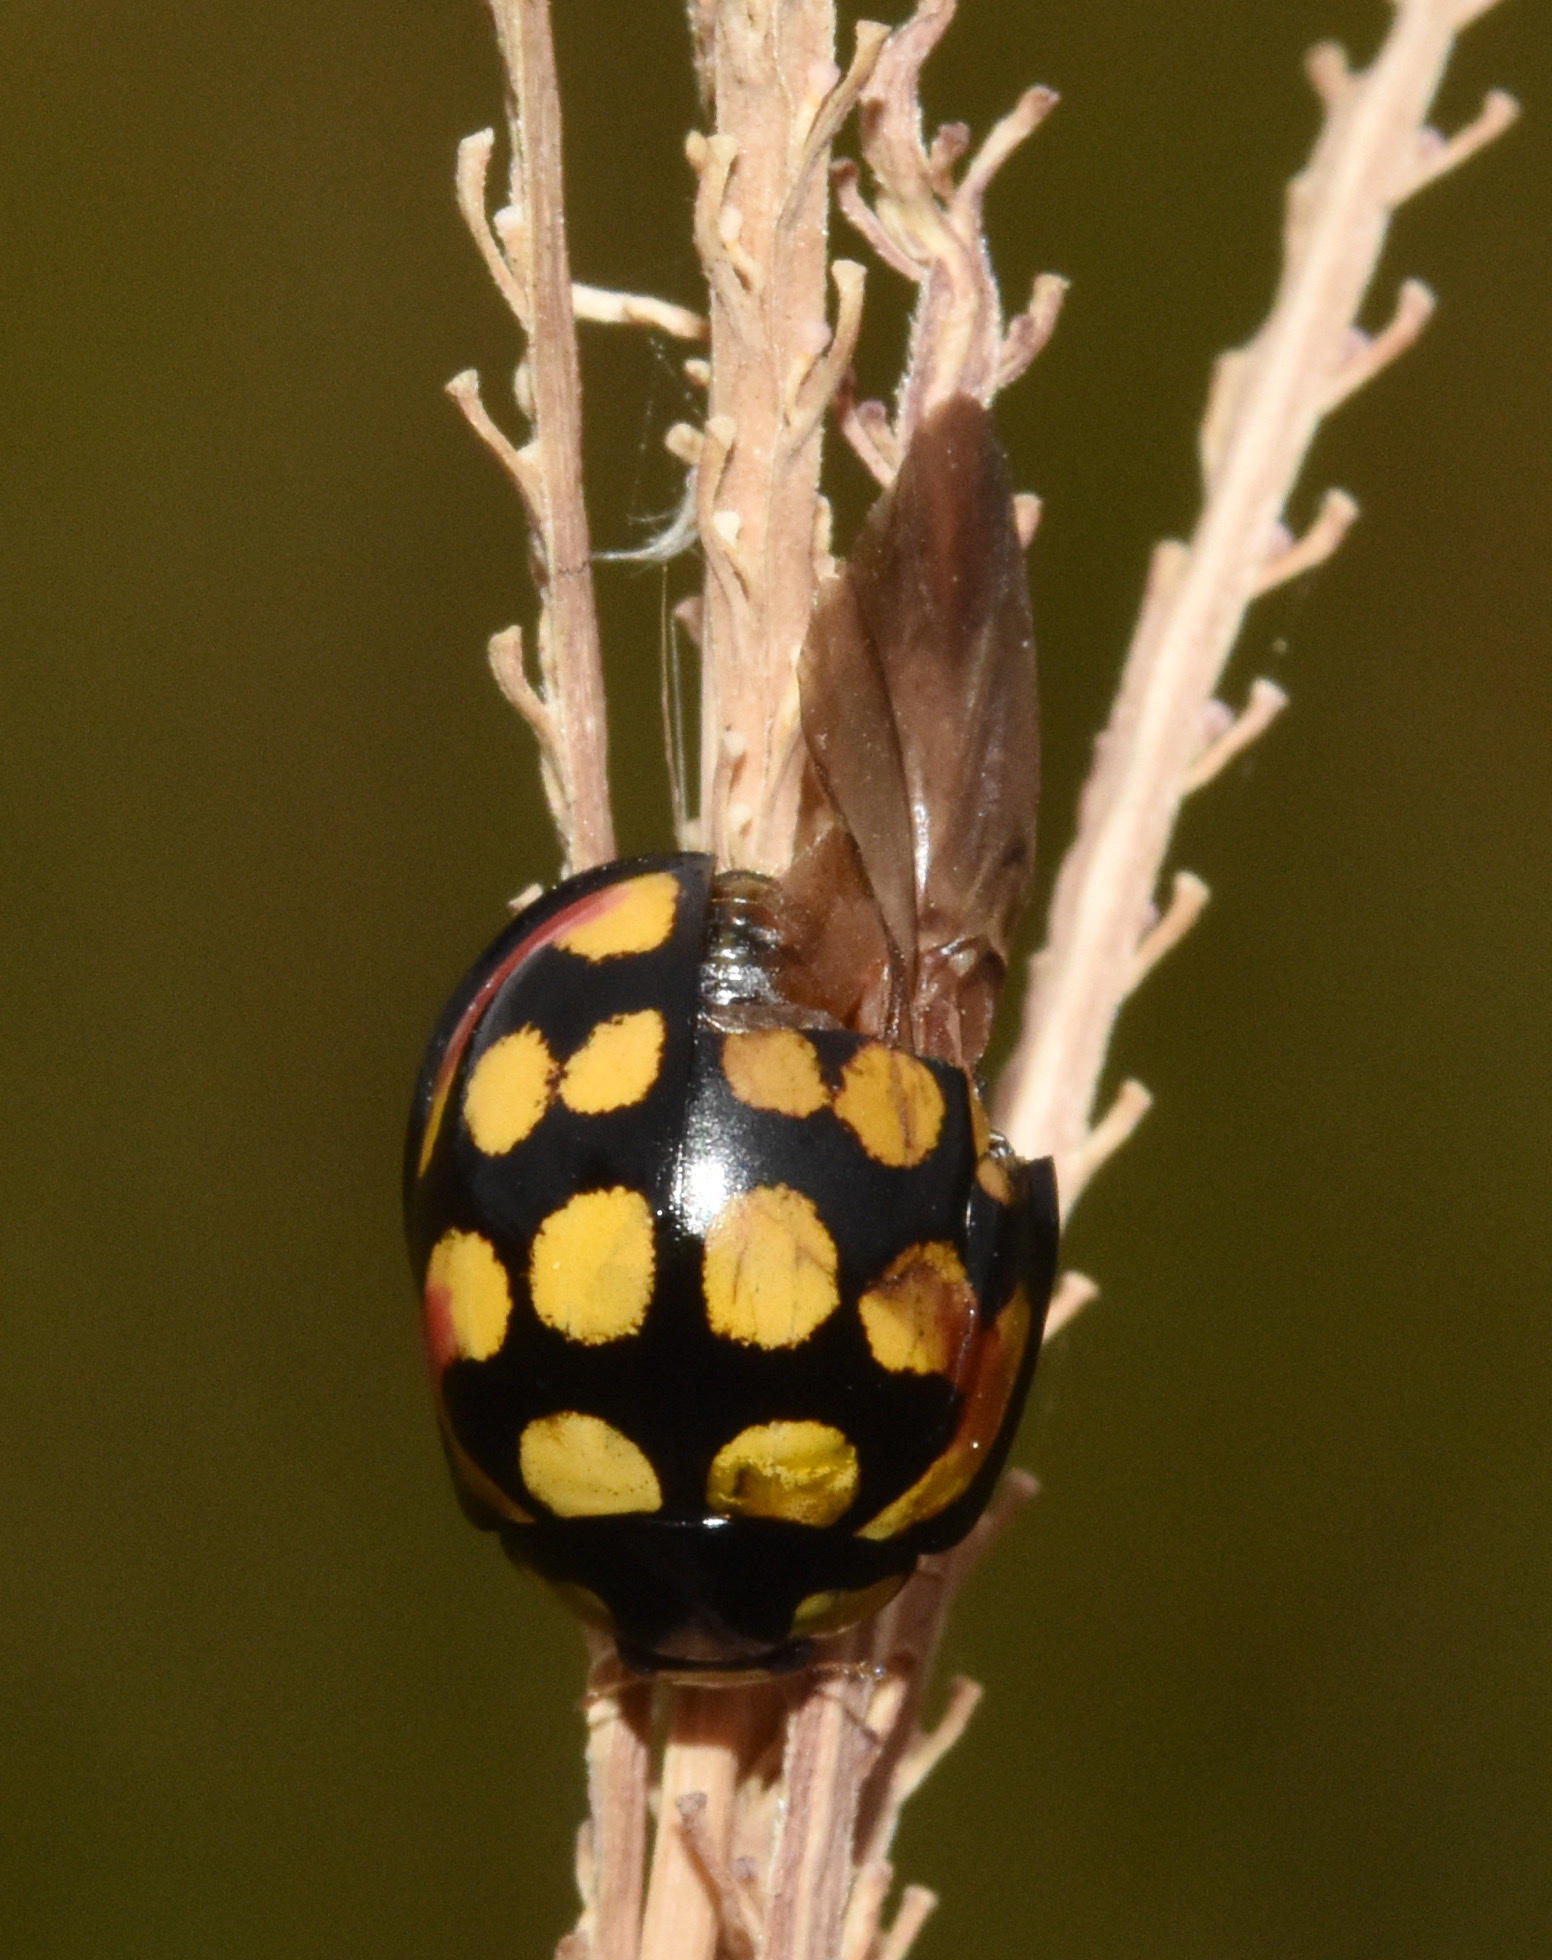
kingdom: Animalia
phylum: Arthropoda
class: Insecta
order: Coleoptera
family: Coccinellidae
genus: Cheilomenes
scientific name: Cheilomenes sulphurea
